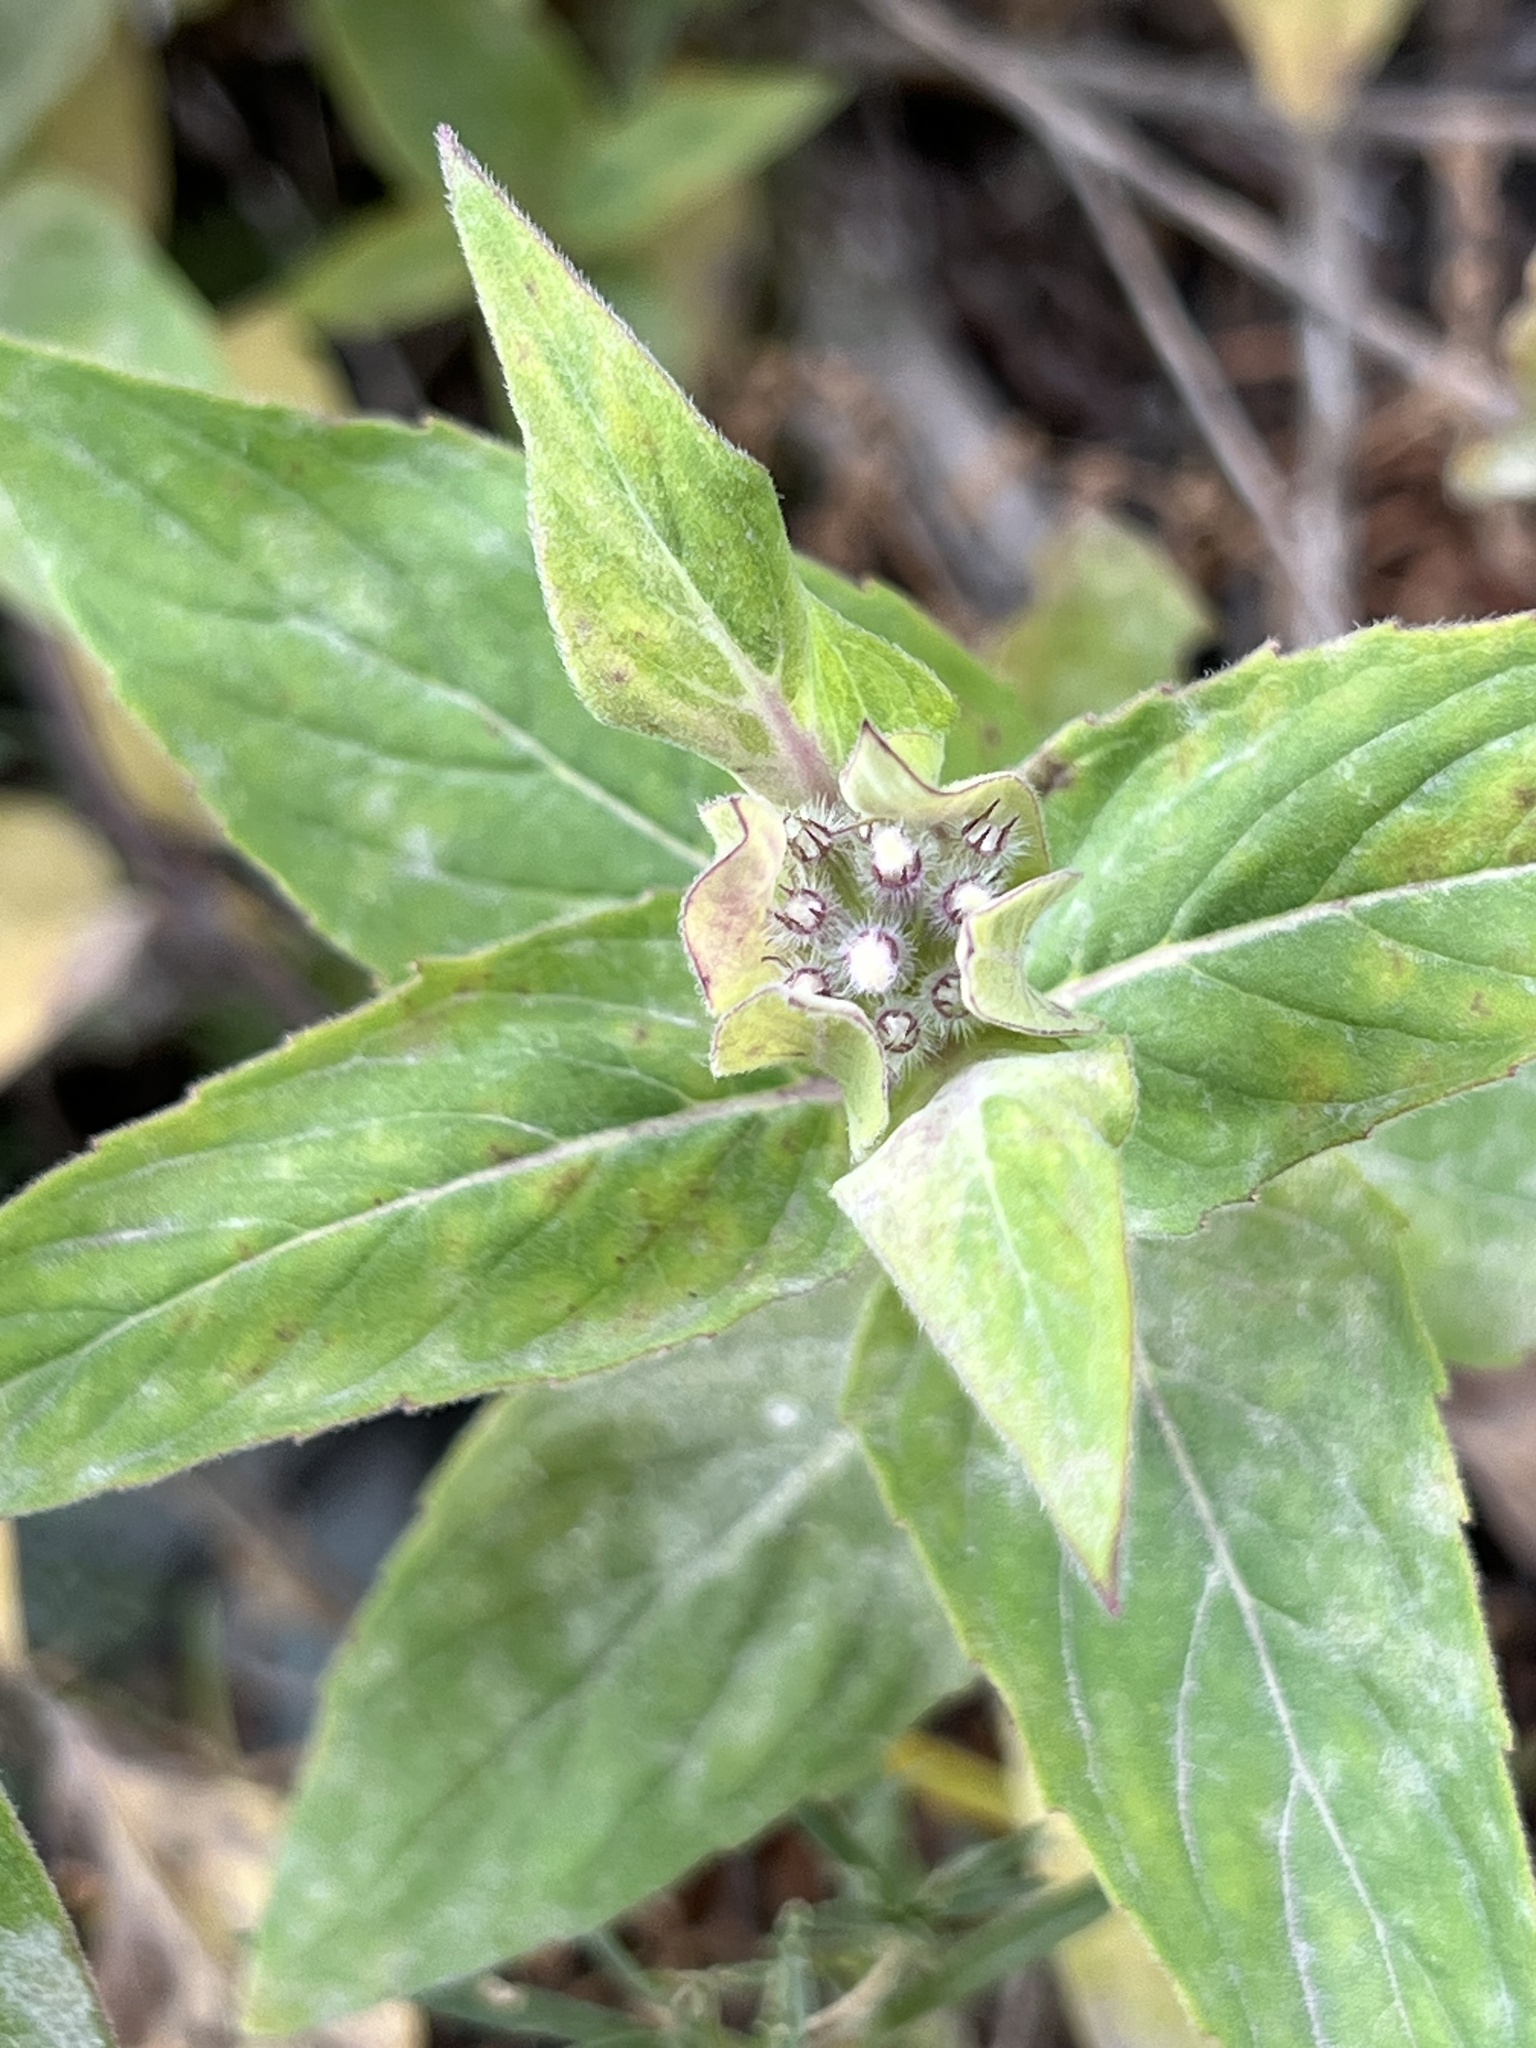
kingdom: Plantae
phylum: Tracheophyta
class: Magnoliopsida
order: Lamiales
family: Lamiaceae
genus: Monarda
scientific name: Monarda fistulosa
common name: Purple beebalm
